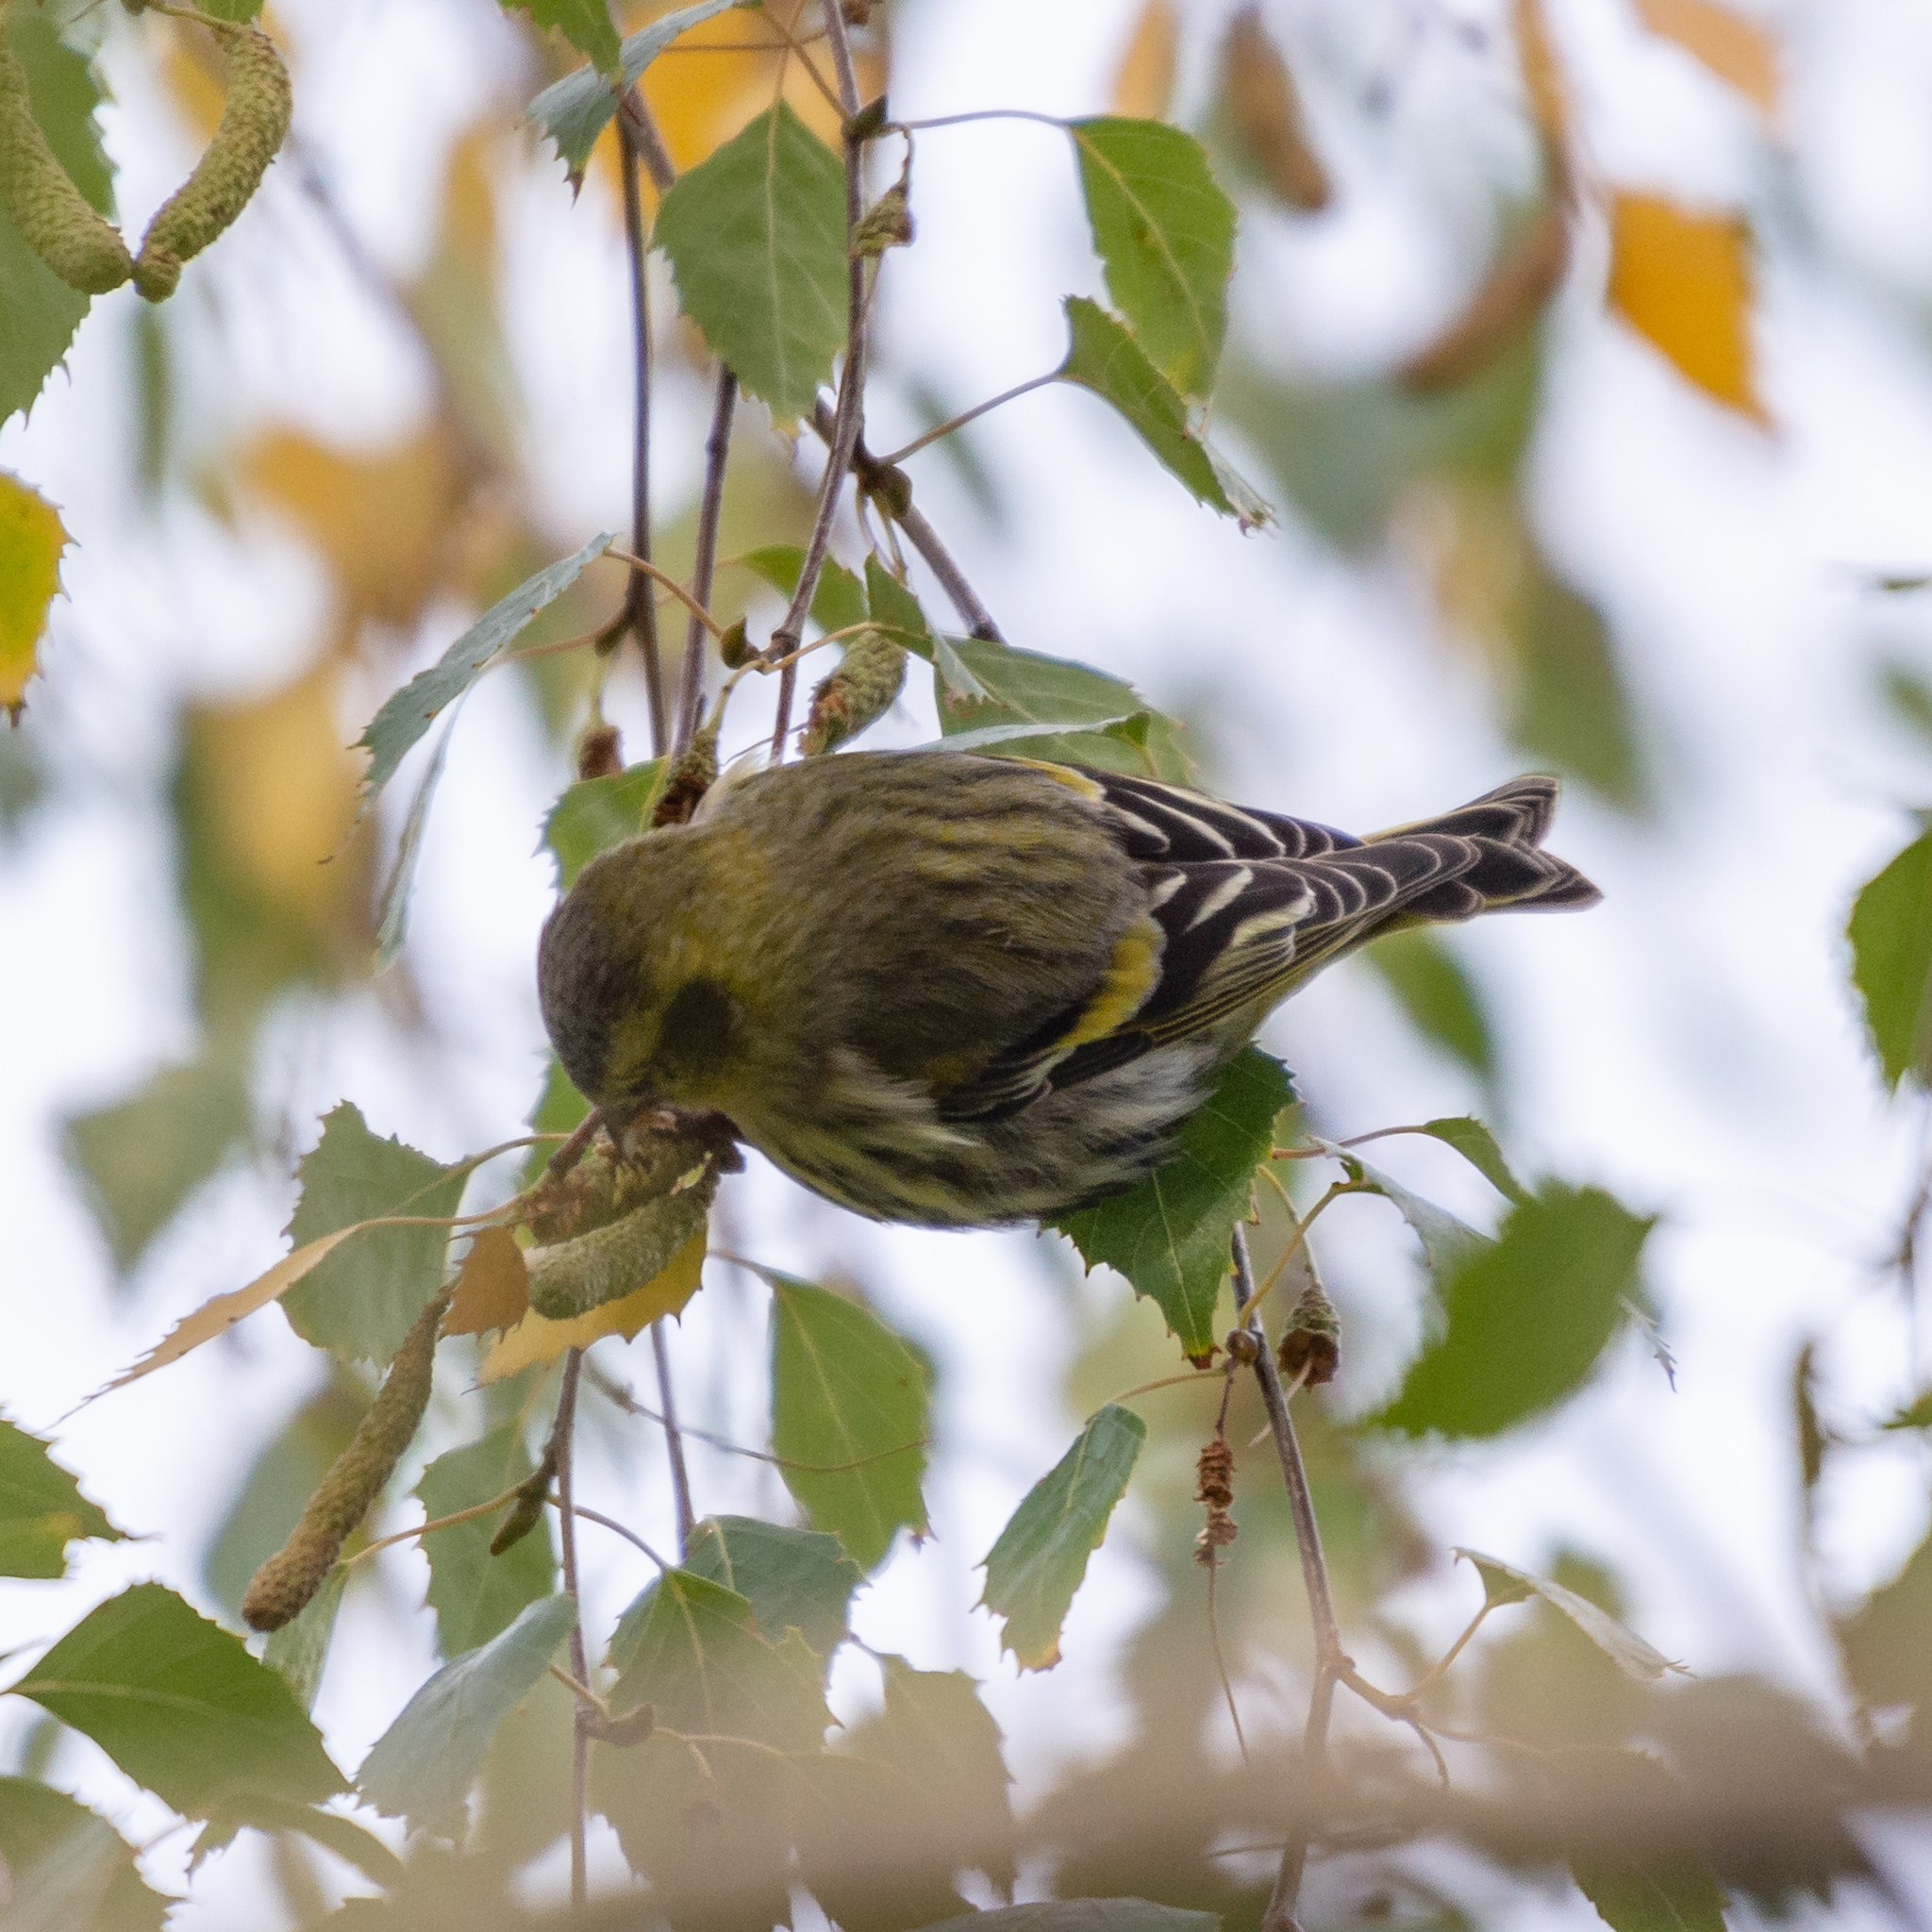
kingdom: Animalia
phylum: Chordata
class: Aves
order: Passeriformes
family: Fringillidae
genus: Spinus
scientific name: Spinus spinus
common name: Eurasian siskin
